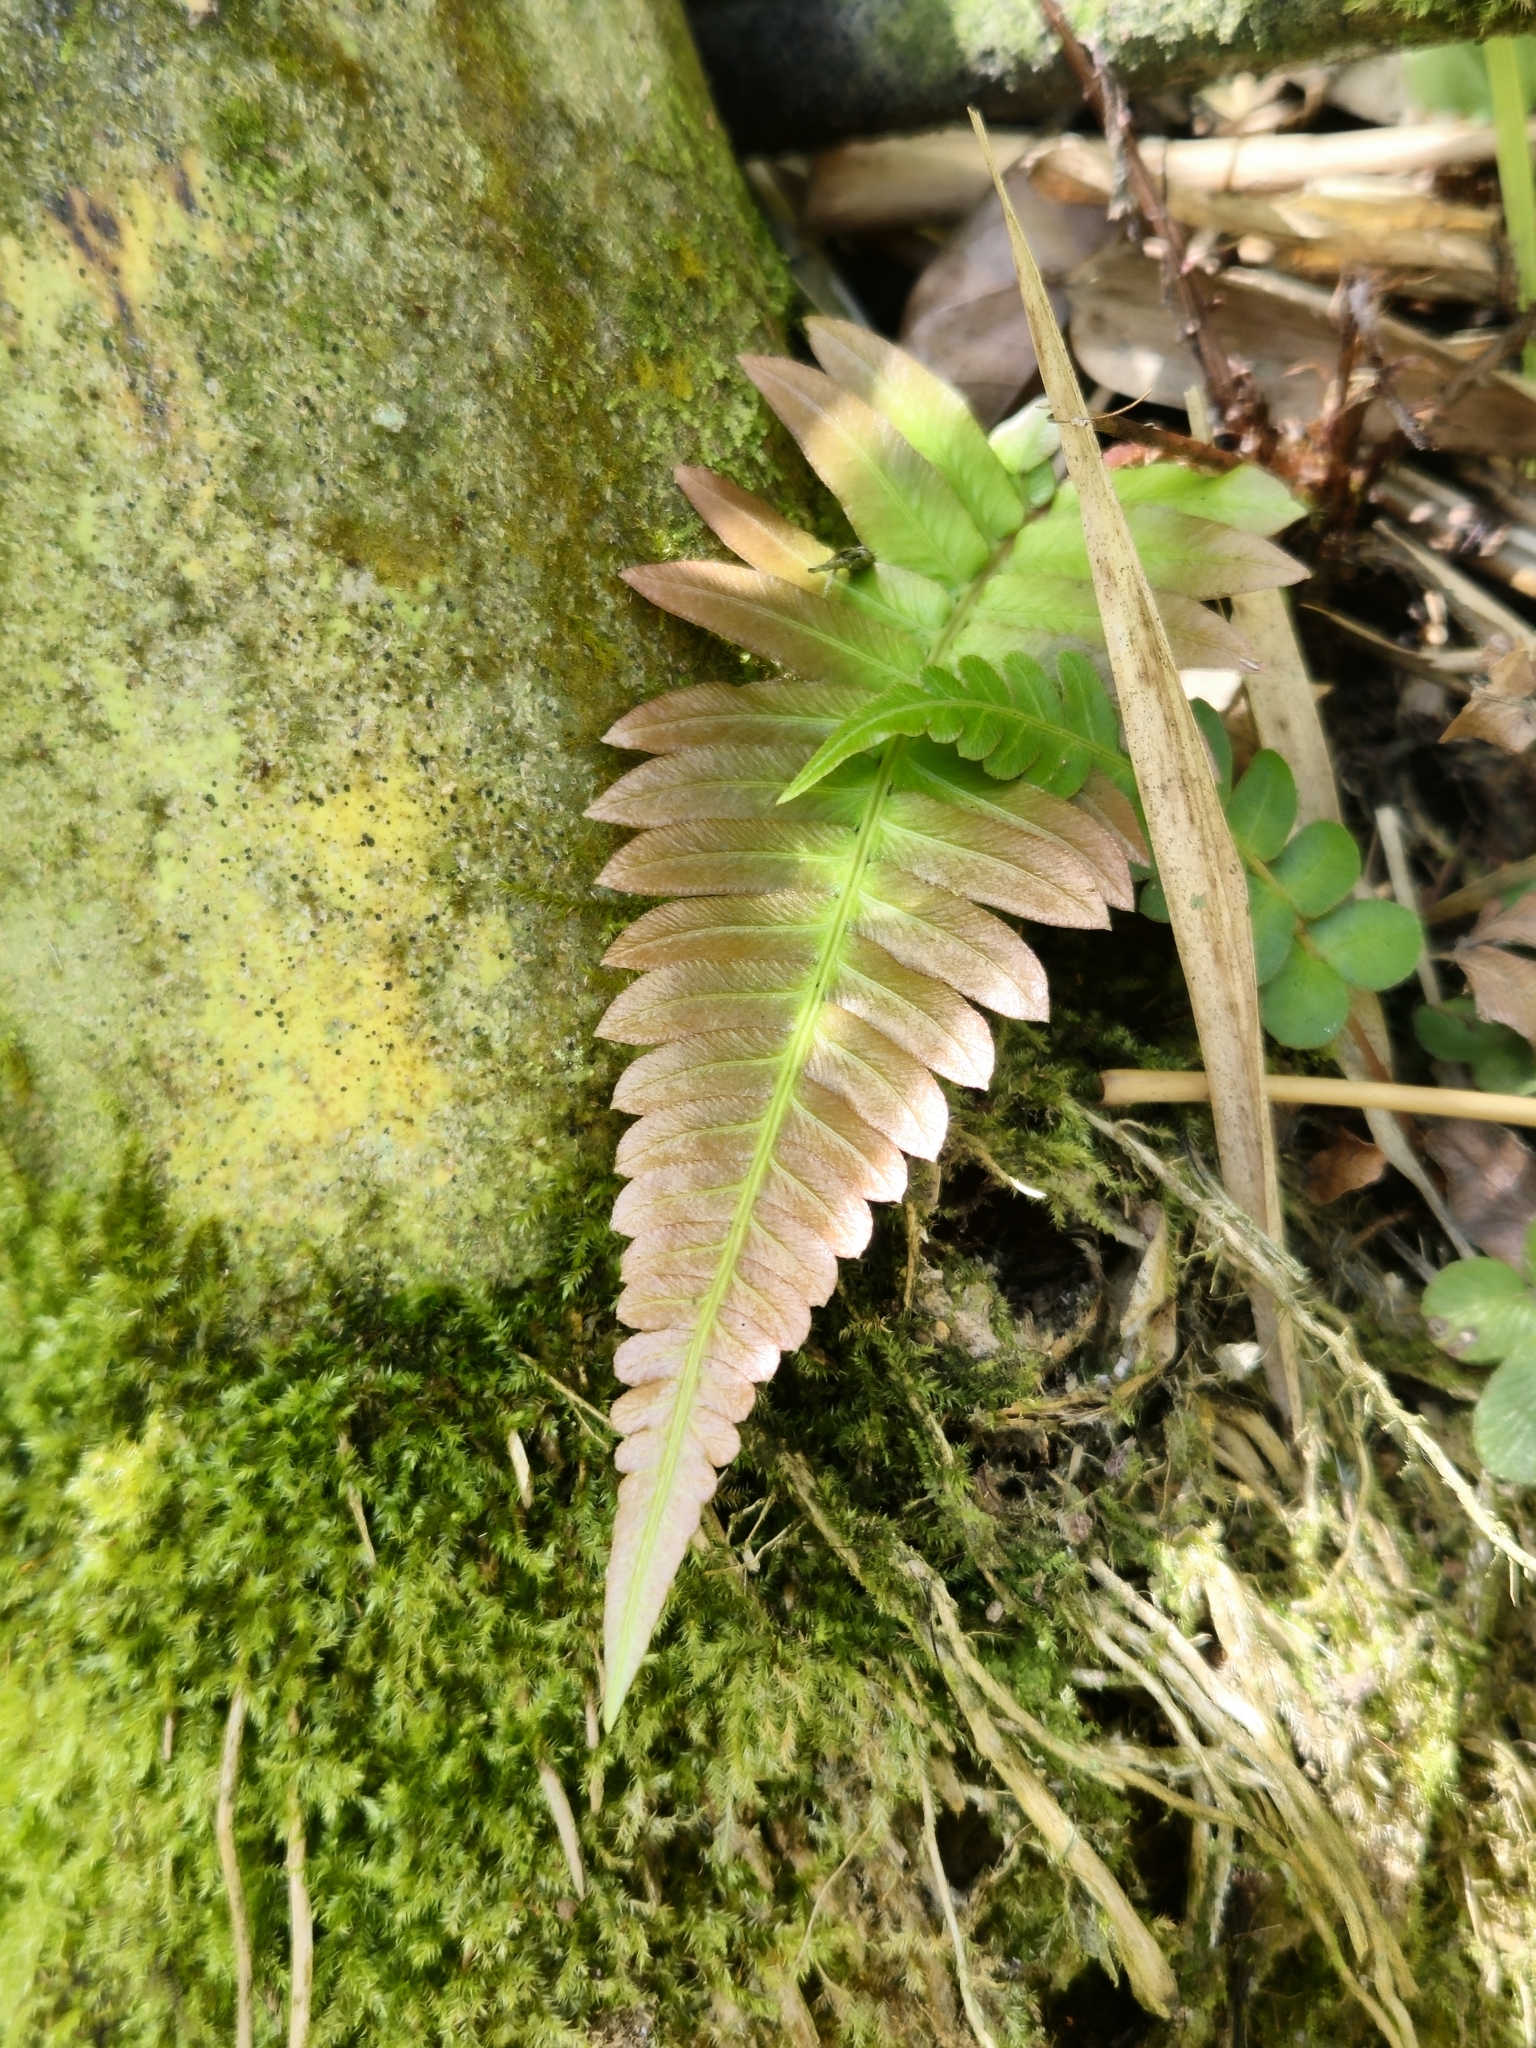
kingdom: Plantae
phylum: Tracheophyta
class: Polypodiopsida
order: Polypodiales
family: Blechnaceae
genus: Blechnum
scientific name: Blechnum occidentale
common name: Hammock fern
